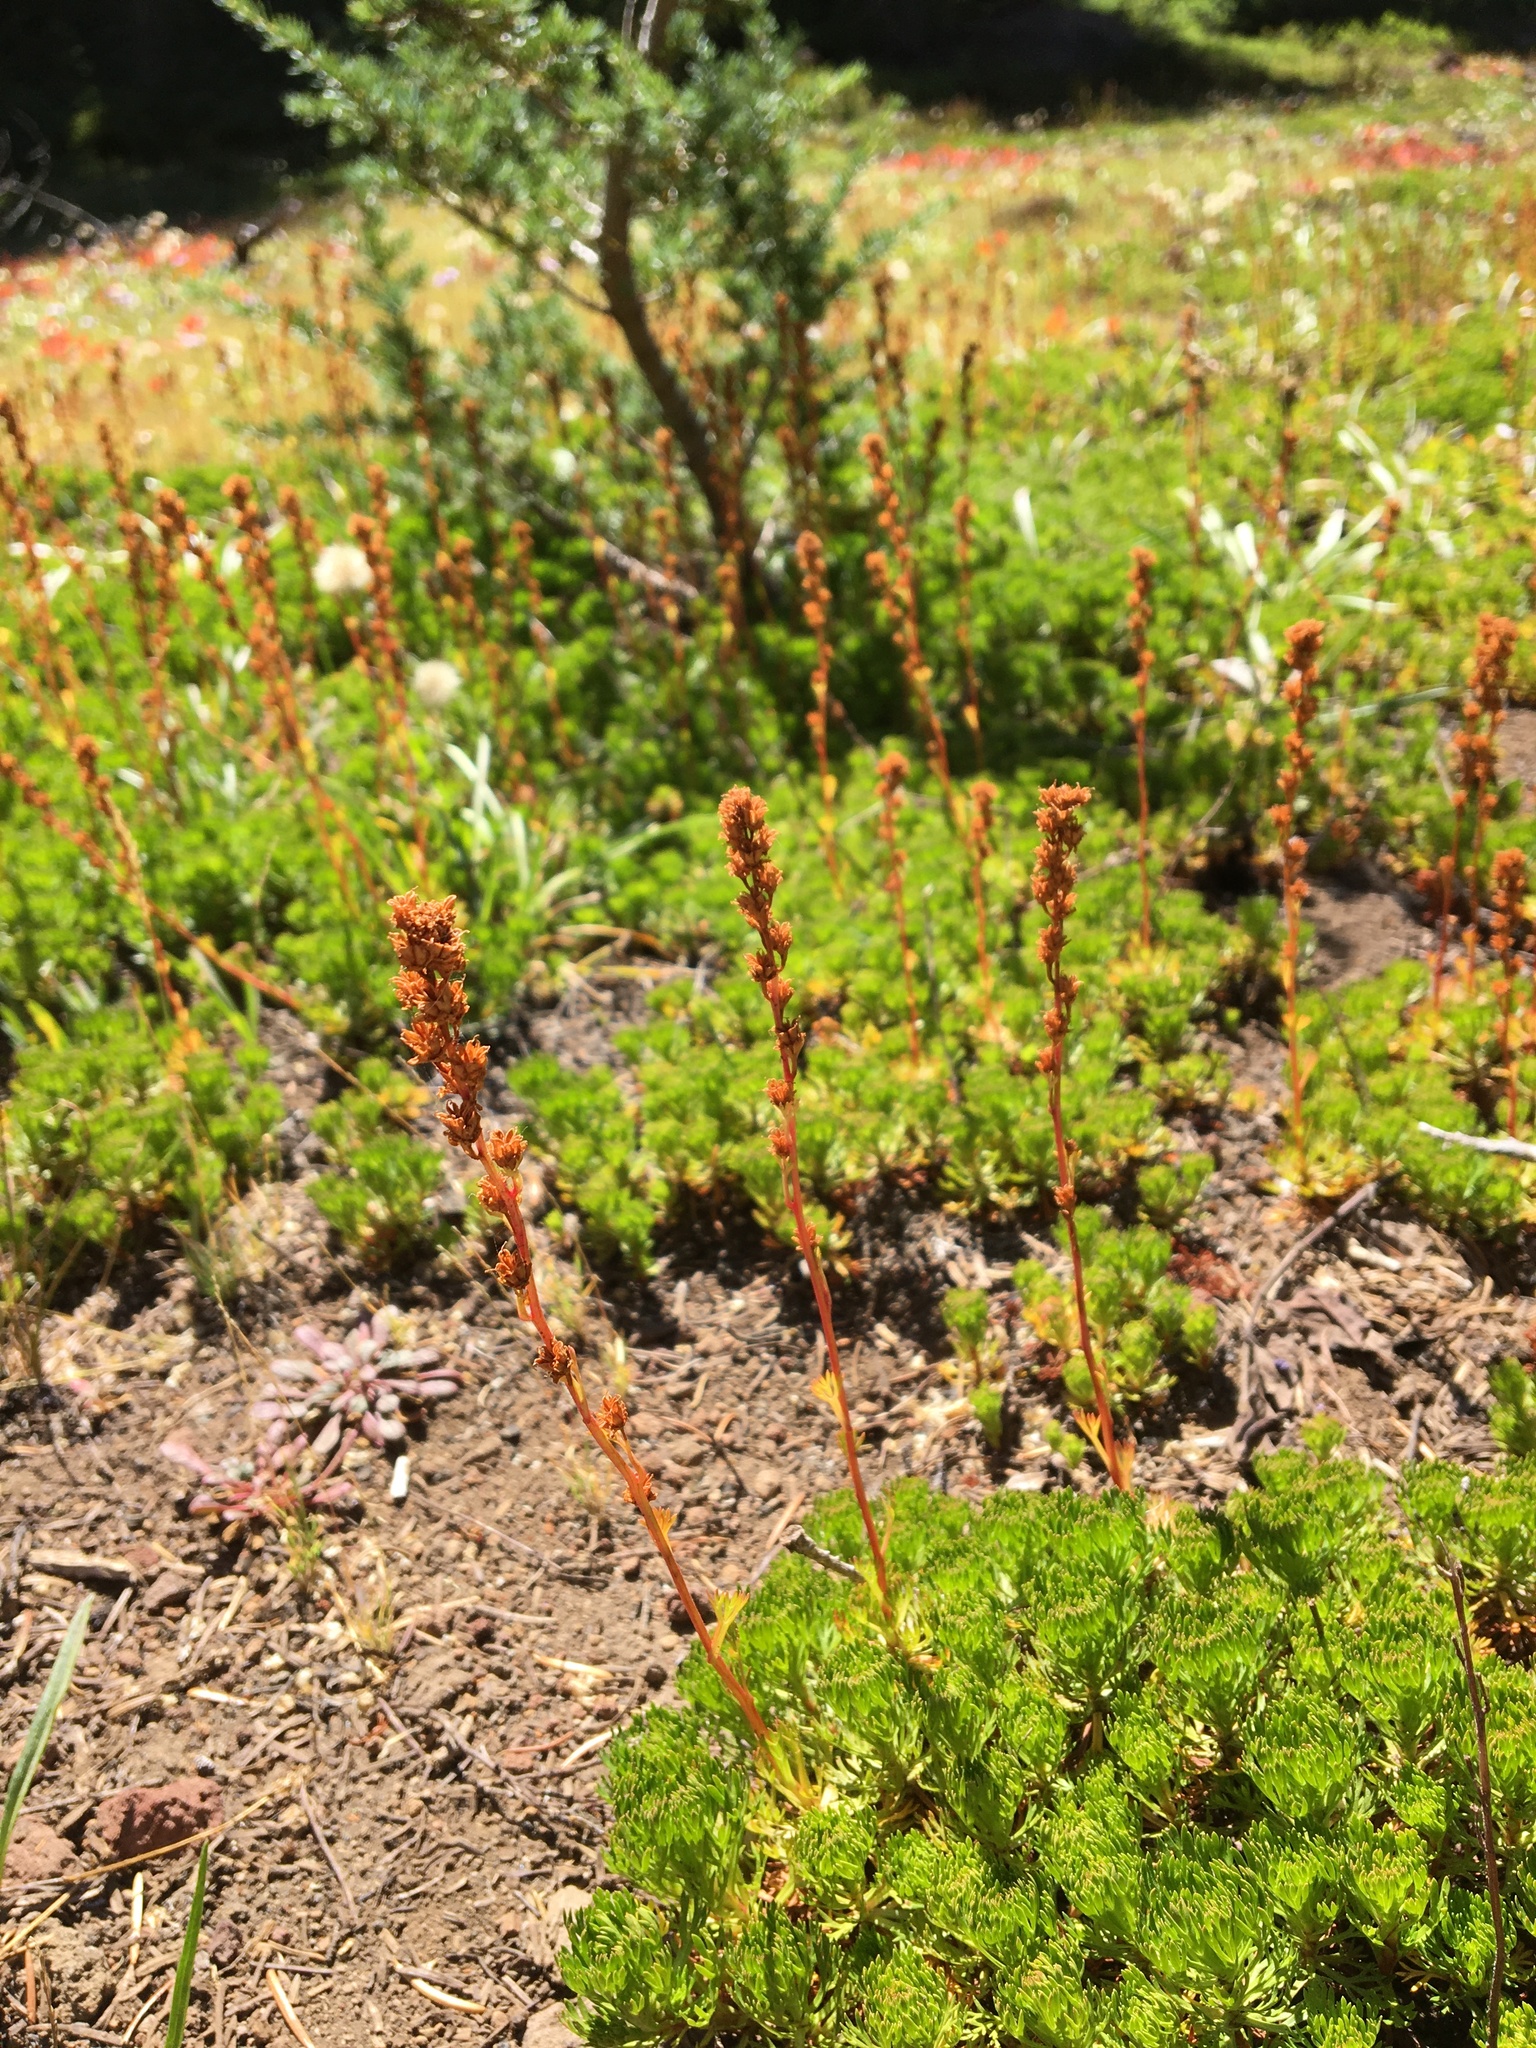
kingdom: Plantae
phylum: Tracheophyta
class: Magnoliopsida
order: Rosales
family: Rosaceae
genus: Luetkea
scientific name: Luetkea pectinata
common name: Partridgefoot
